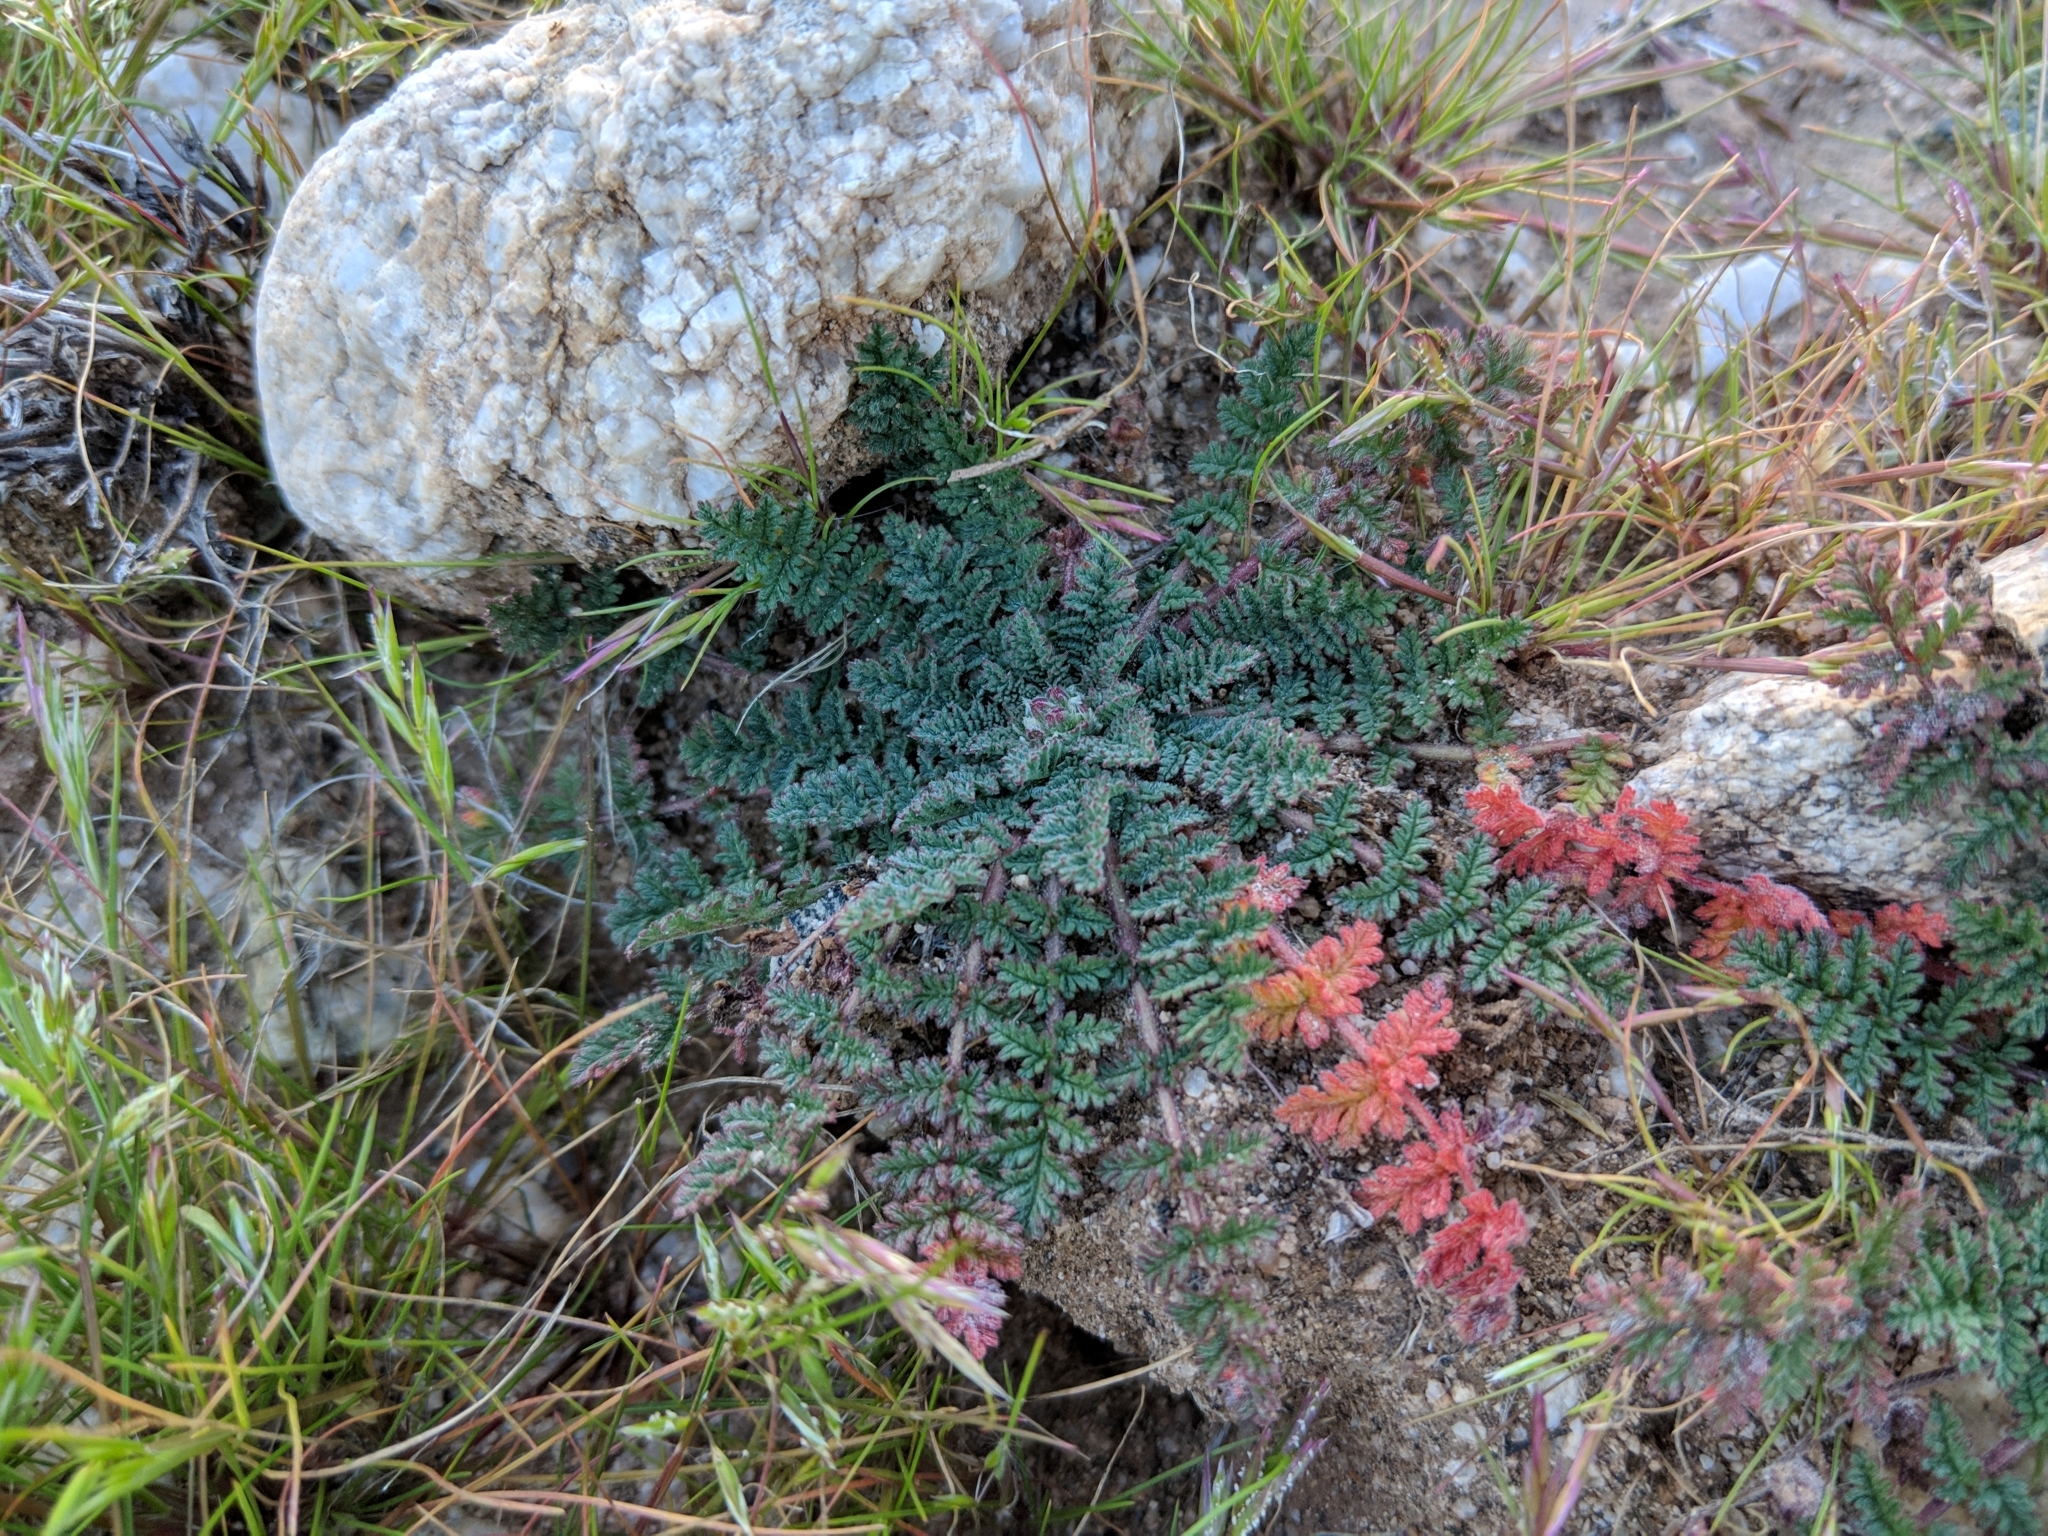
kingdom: Plantae
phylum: Tracheophyta
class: Magnoliopsida
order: Geraniales
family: Geraniaceae
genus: Erodium
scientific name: Erodium cicutarium
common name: Common stork's-bill
